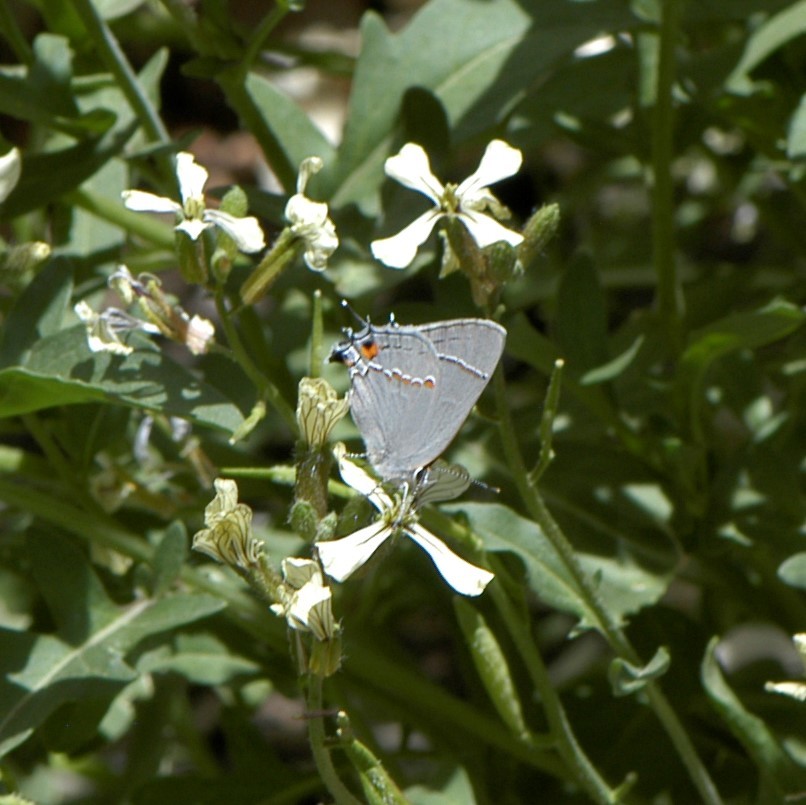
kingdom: Animalia
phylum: Arthropoda
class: Insecta
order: Lepidoptera
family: Lycaenidae
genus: Strymon
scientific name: Strymon melinus
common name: Gray hairstreak
